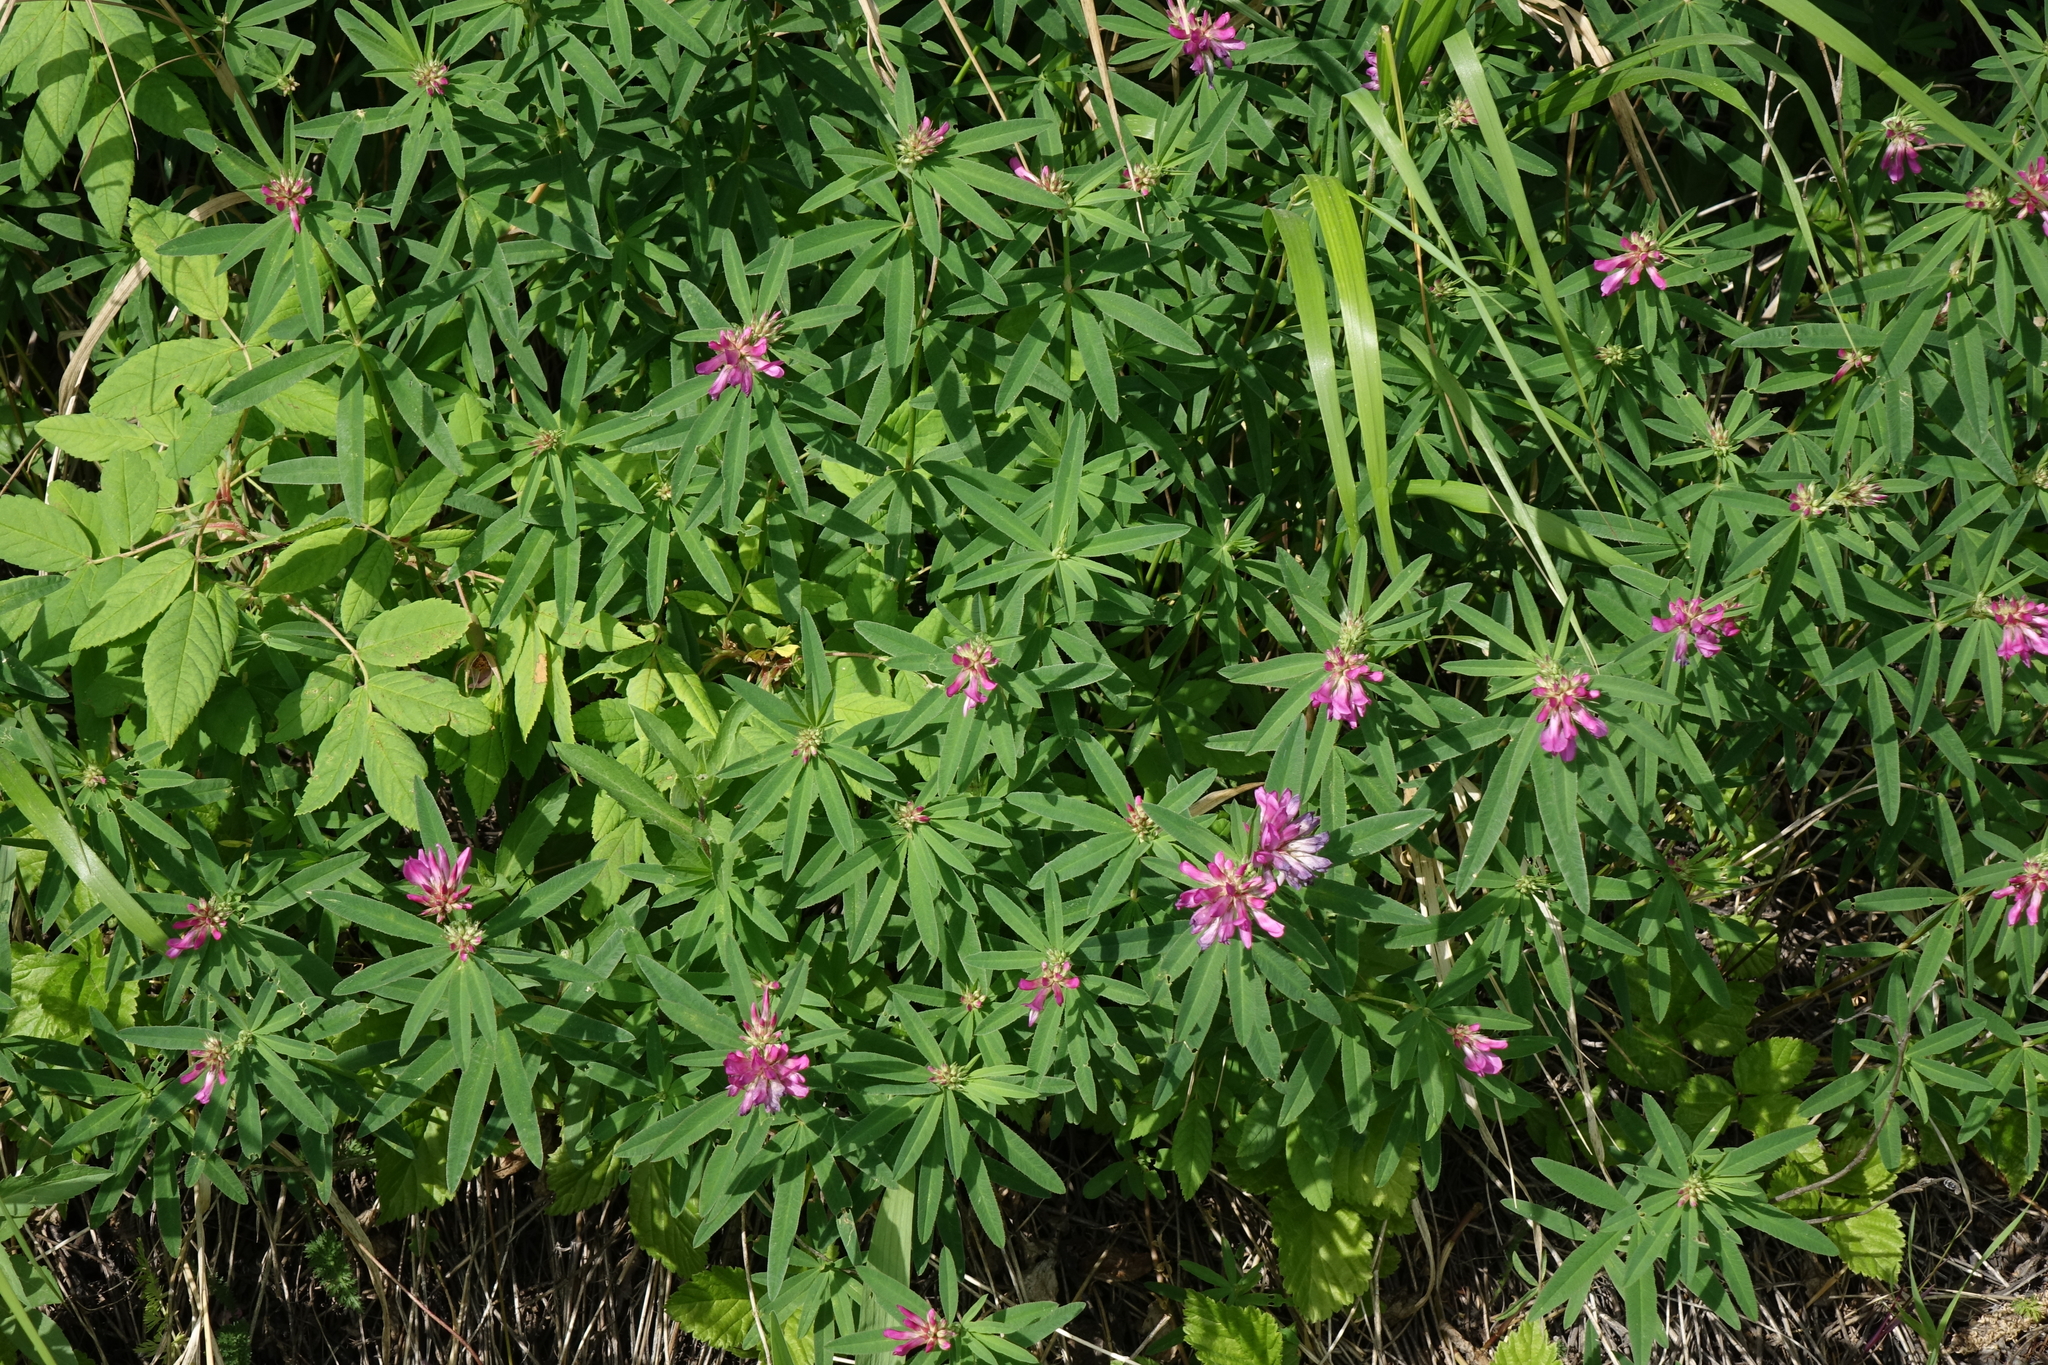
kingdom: Plantae
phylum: Tracheophyta
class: Magnoliopsida
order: Fabales
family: Fabaceae
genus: Trifolium
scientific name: Trifolium lupinaster
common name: Lupine clover
